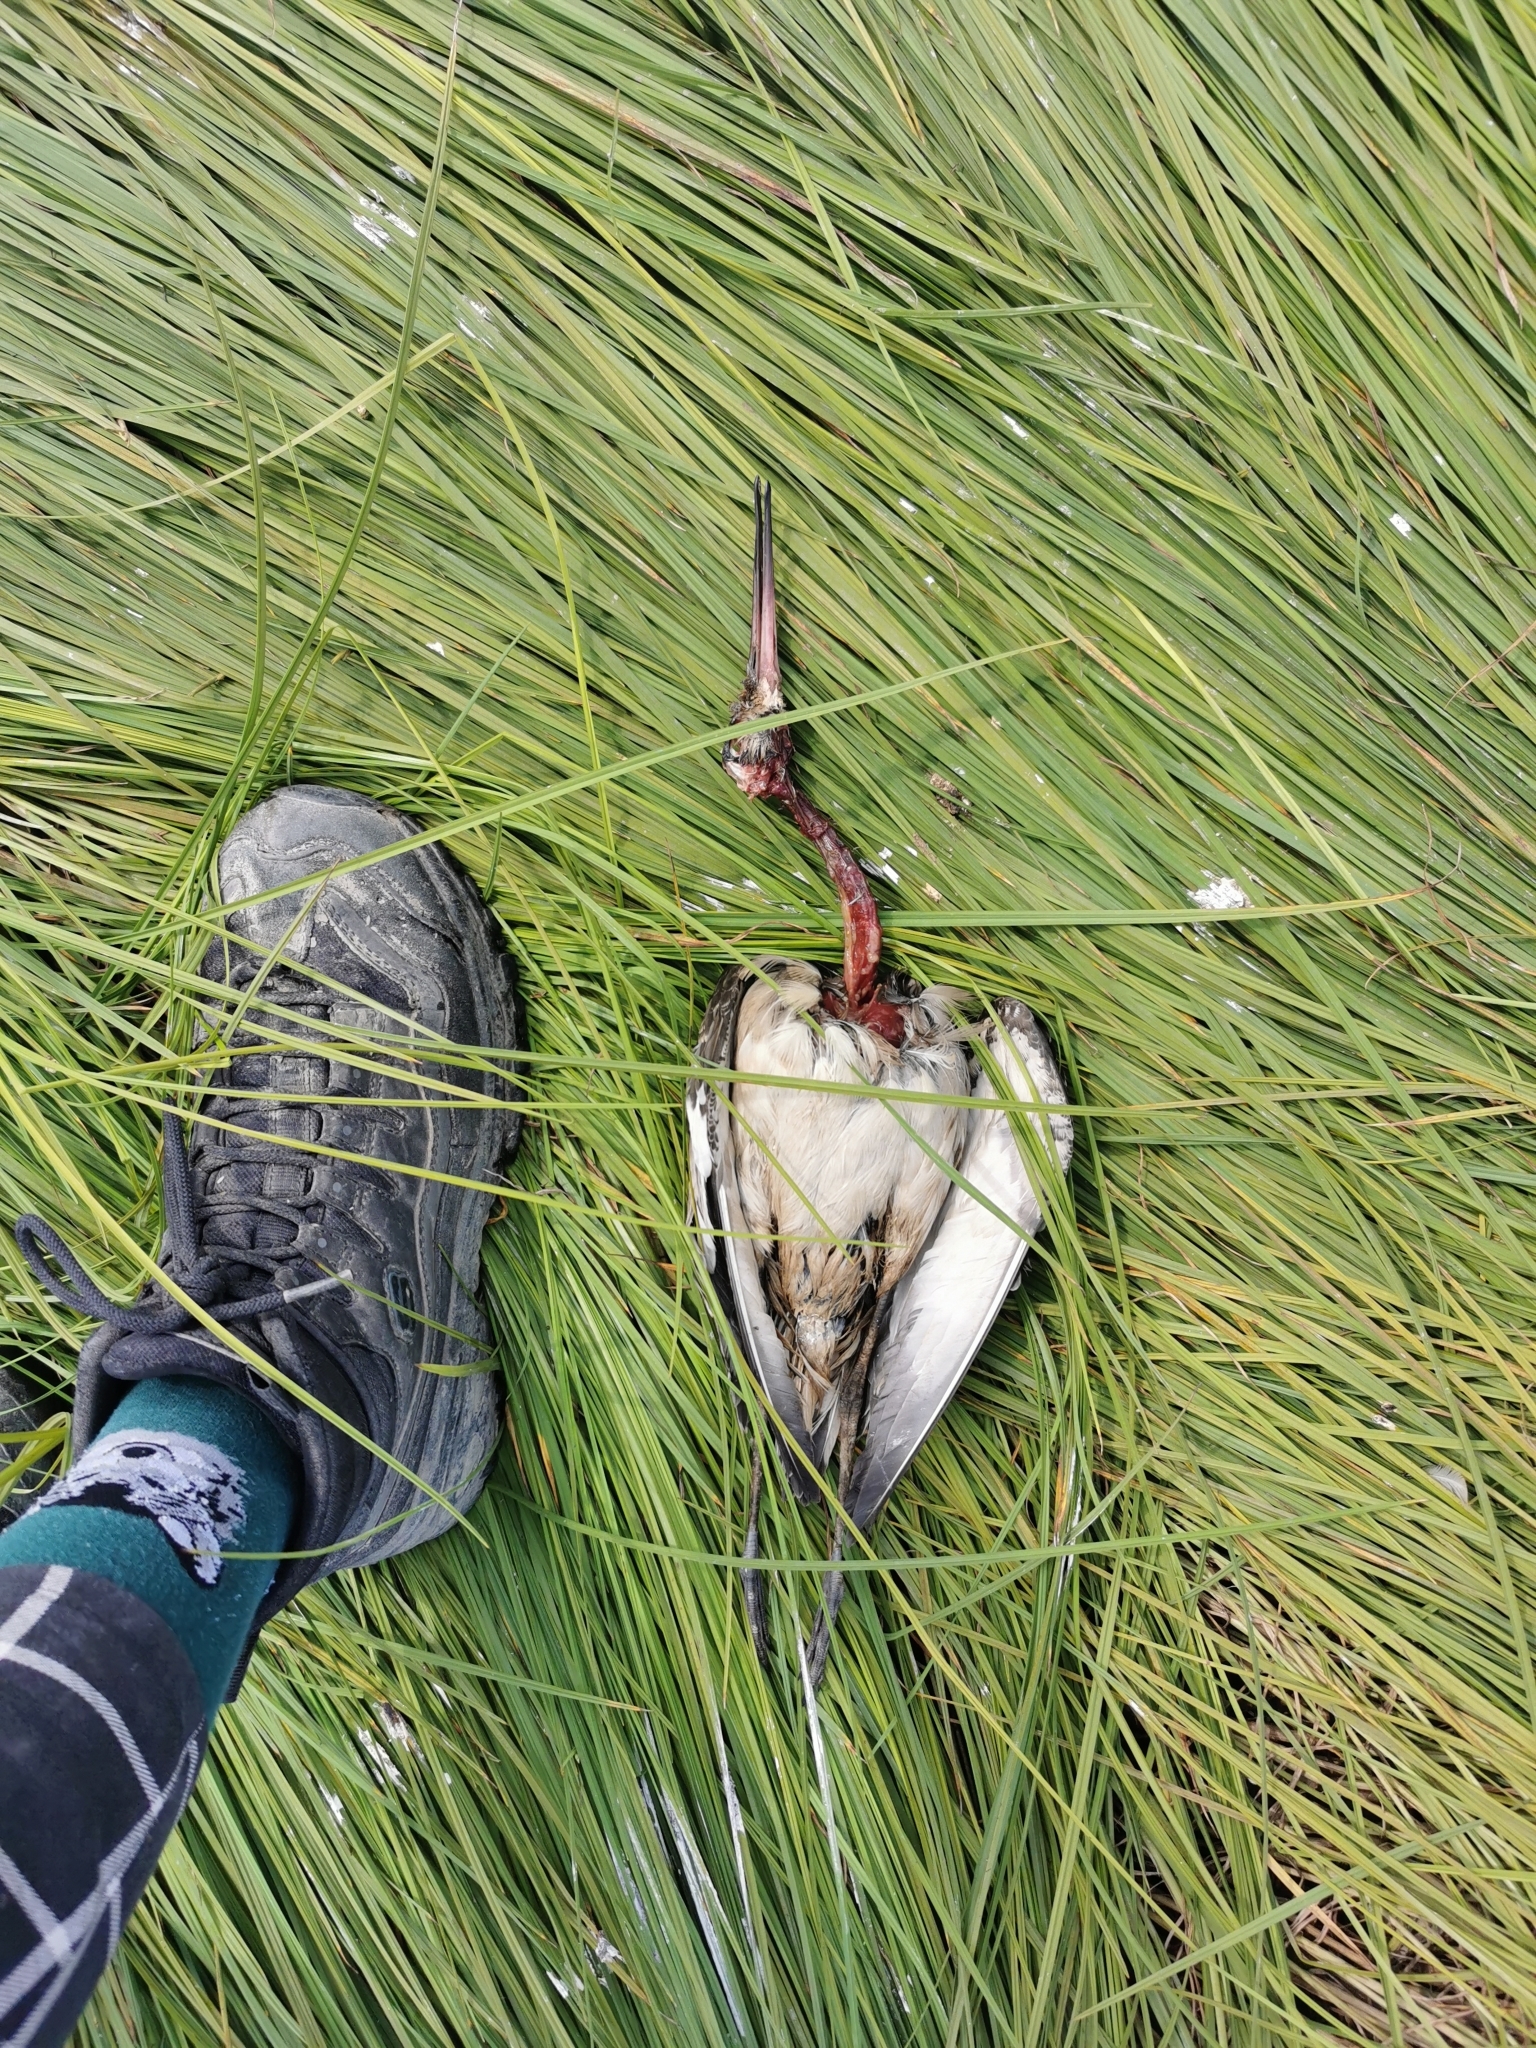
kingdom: Animalia
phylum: Chordata
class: Aves
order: Charadriiformes
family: Scolopacidae
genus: Limosa
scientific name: Limosa limosa
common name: Black-tailed godwit
